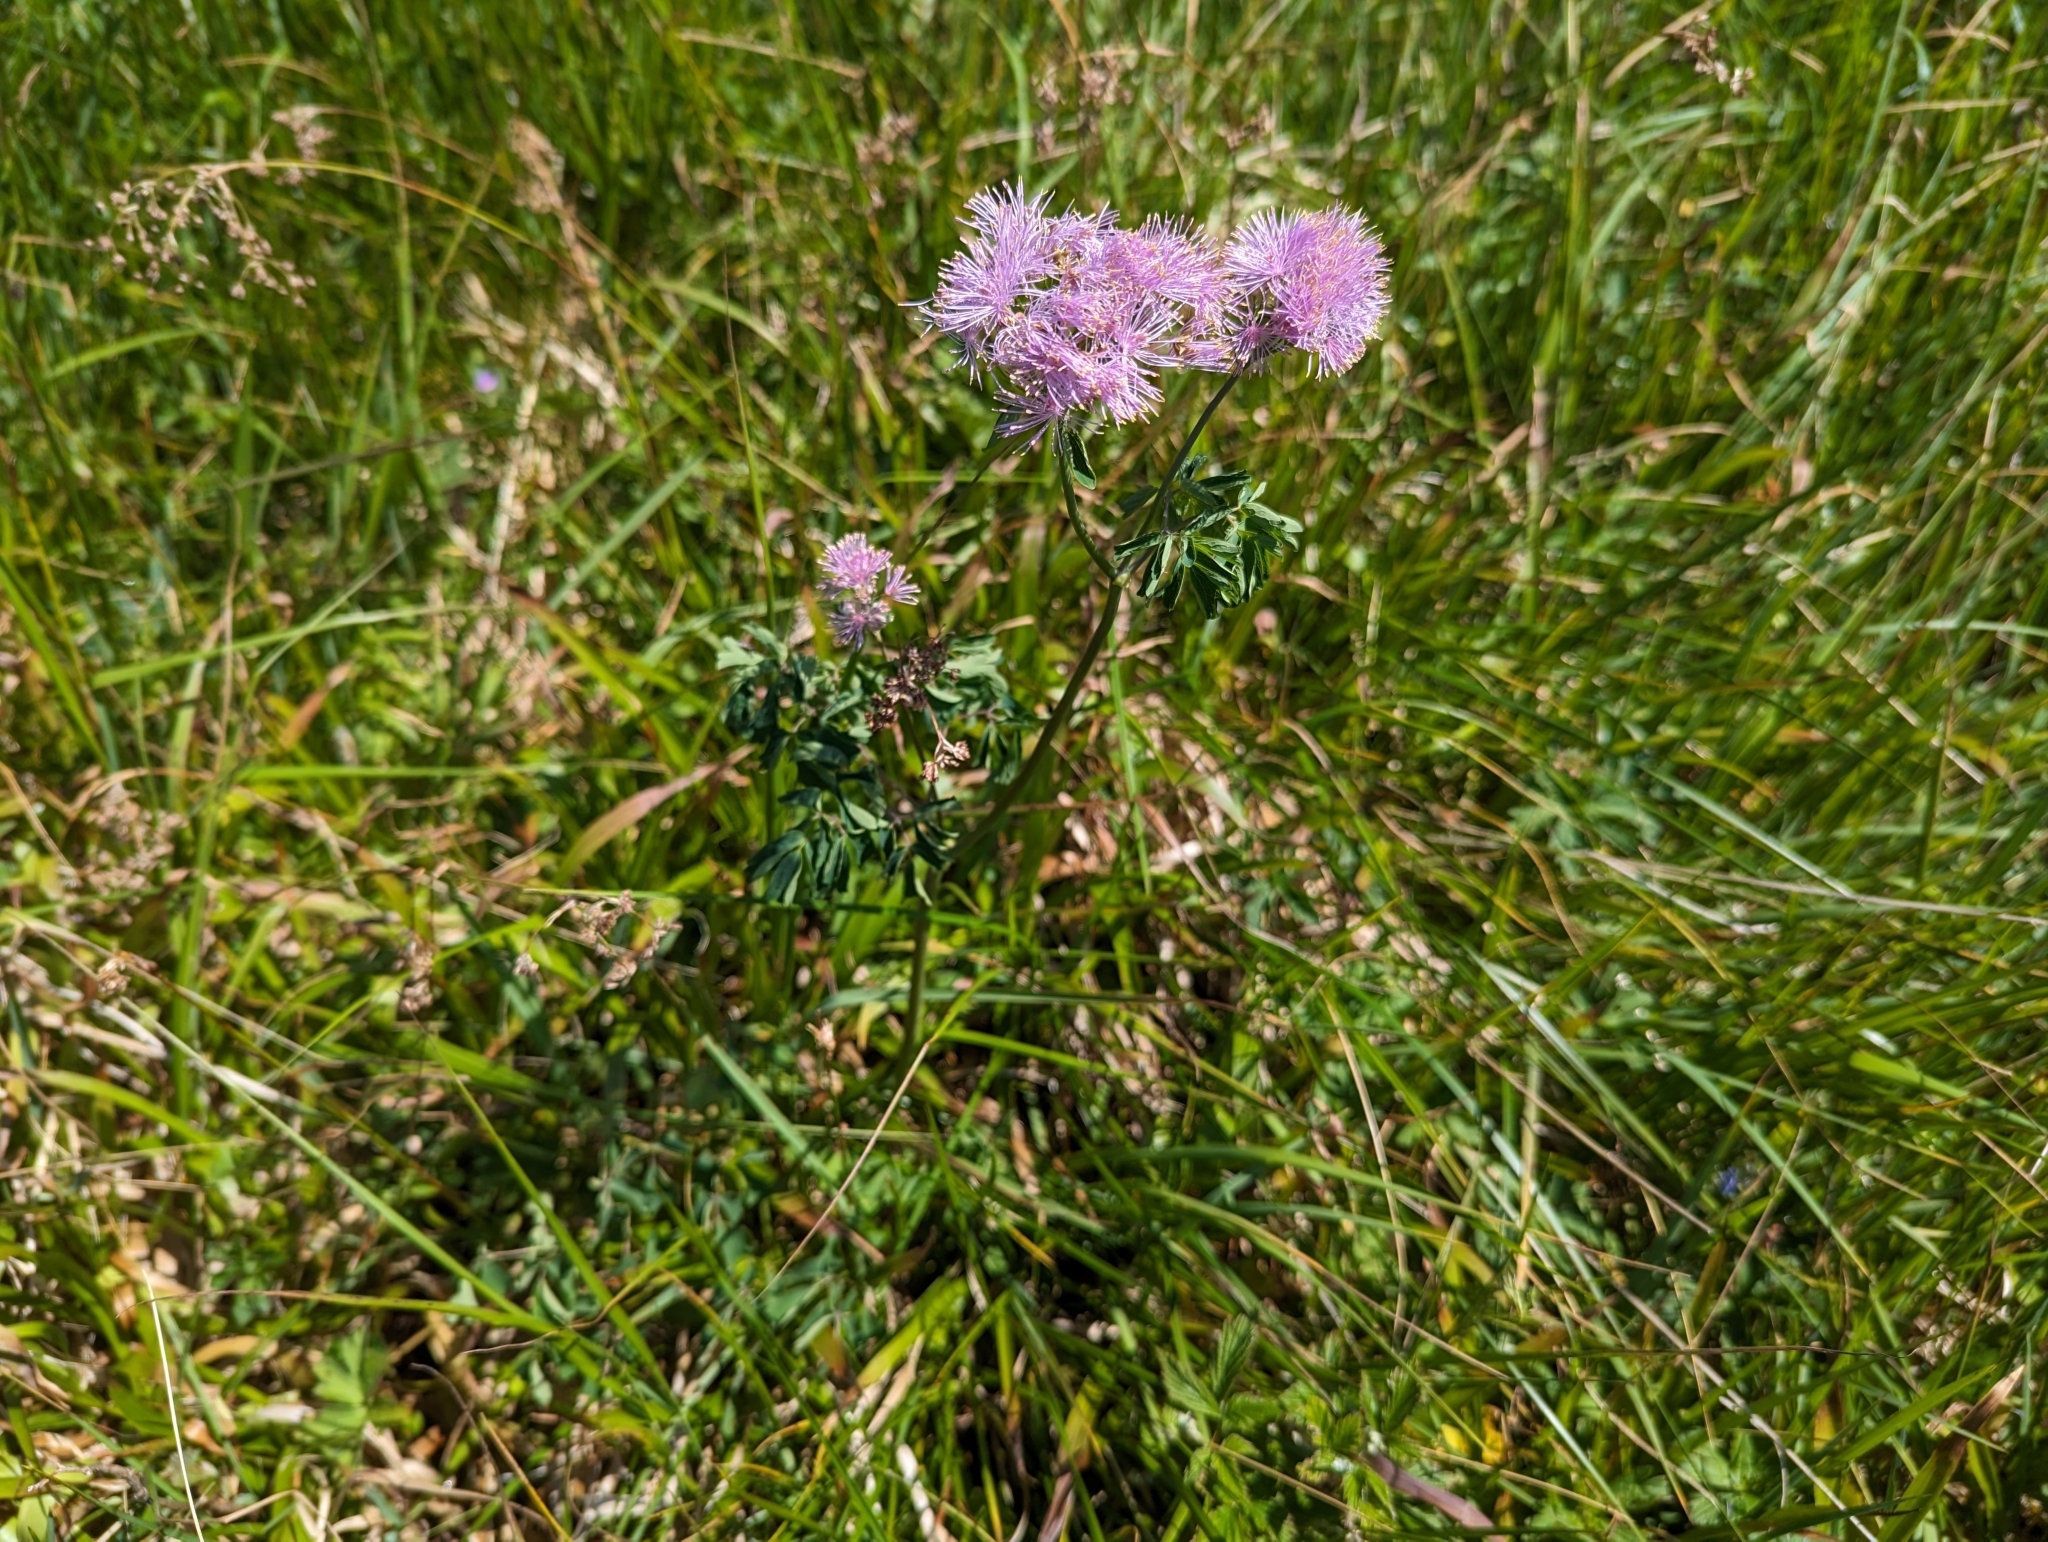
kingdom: Plantae
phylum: Tracheophyta
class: Magnoliopsida
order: Ranunculales
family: Ranunculaceae
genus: Thalictrum
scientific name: Thalictrum aquilegiifolium
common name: French meadow-rue
